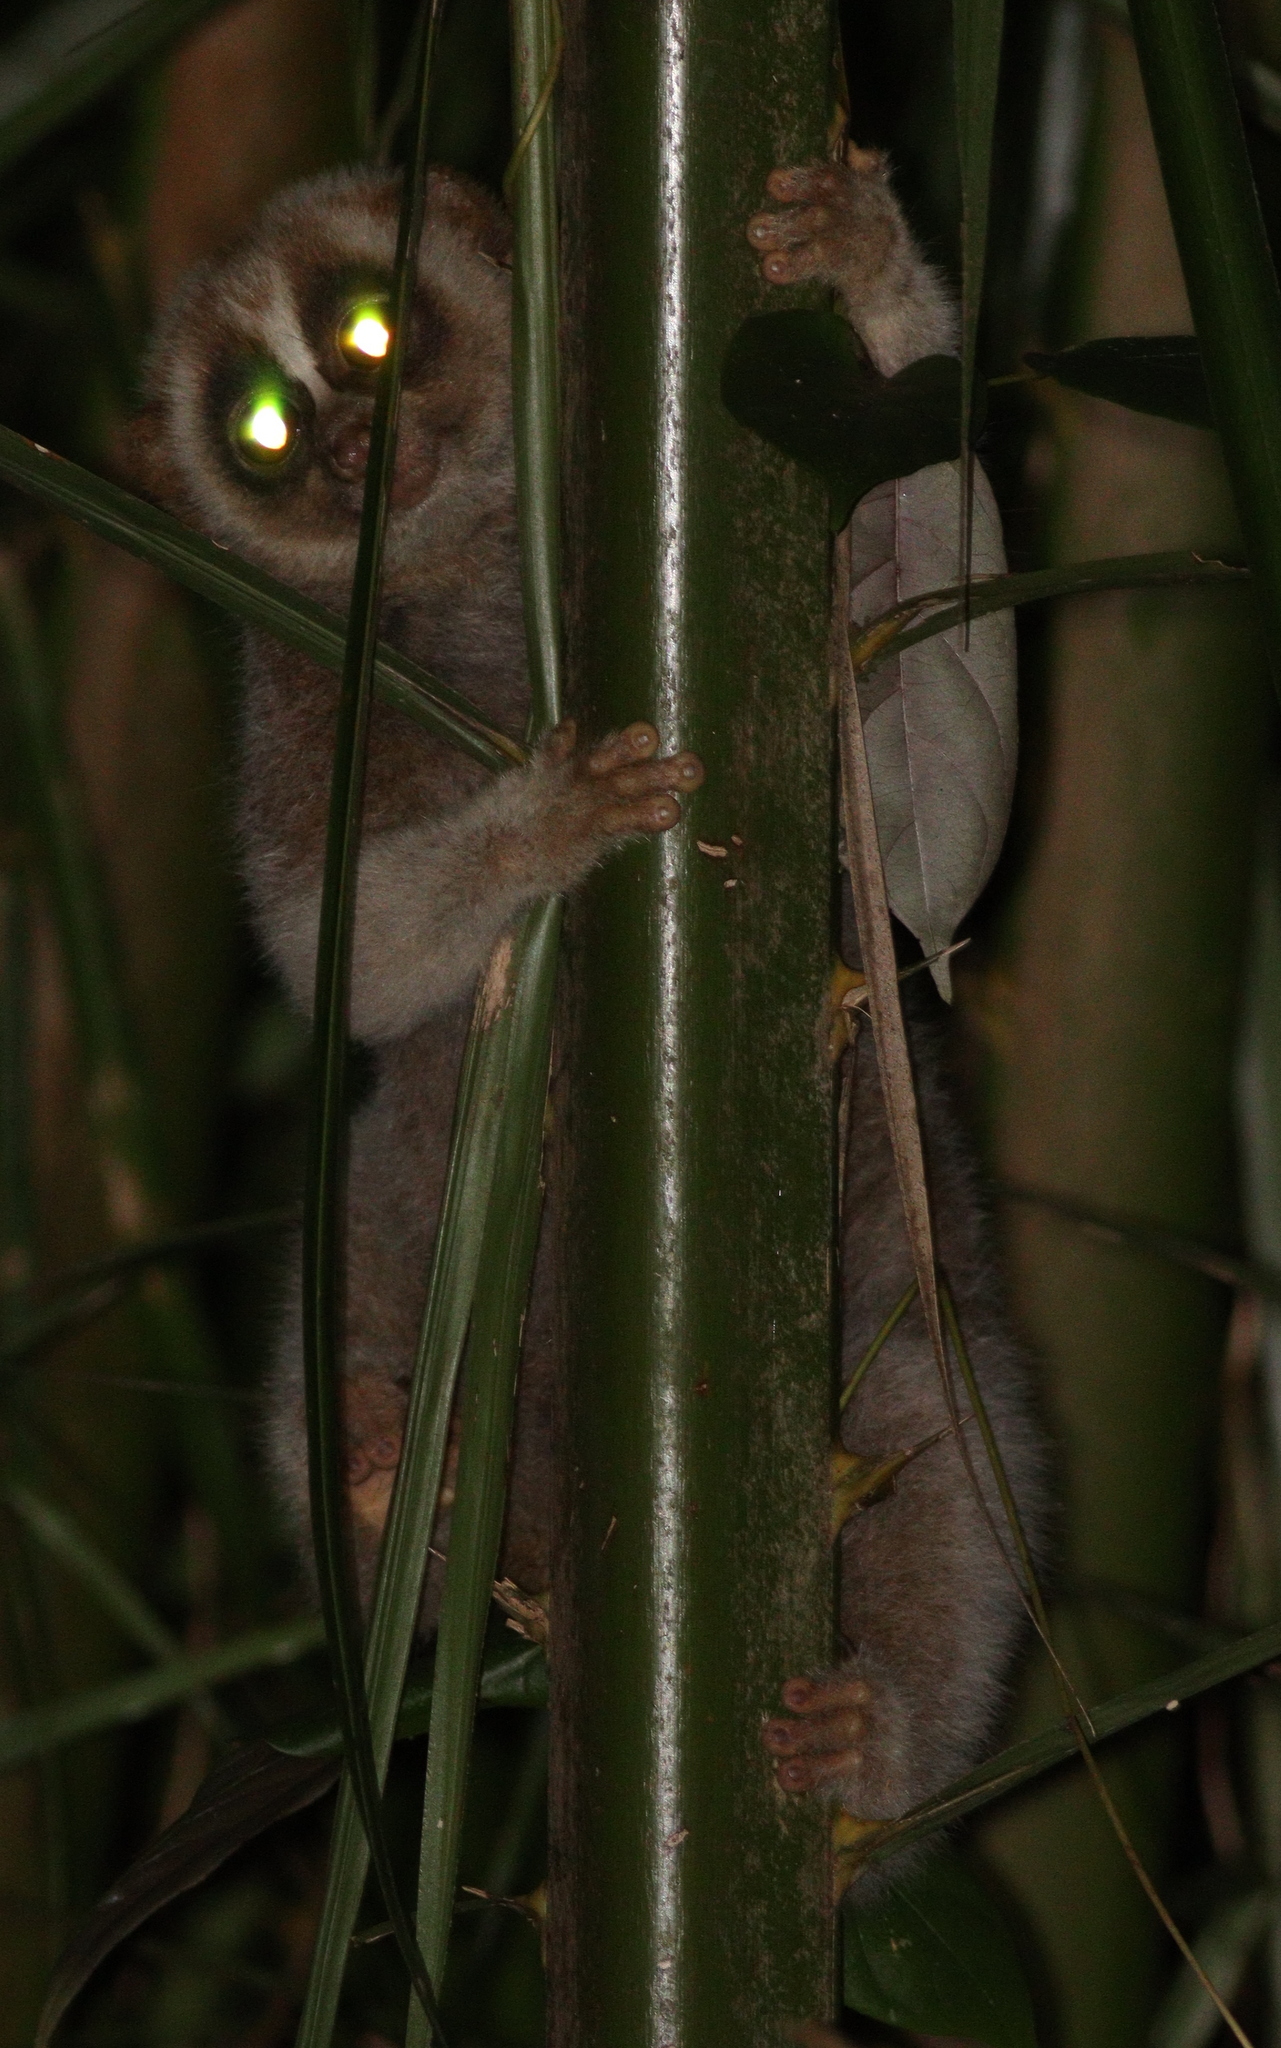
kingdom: Animalia
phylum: Chordata
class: Mammalia
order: Primates
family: Lorisidae
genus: Nycticebus
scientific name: Nycticebus bengalensis
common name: Bengal slow loris
